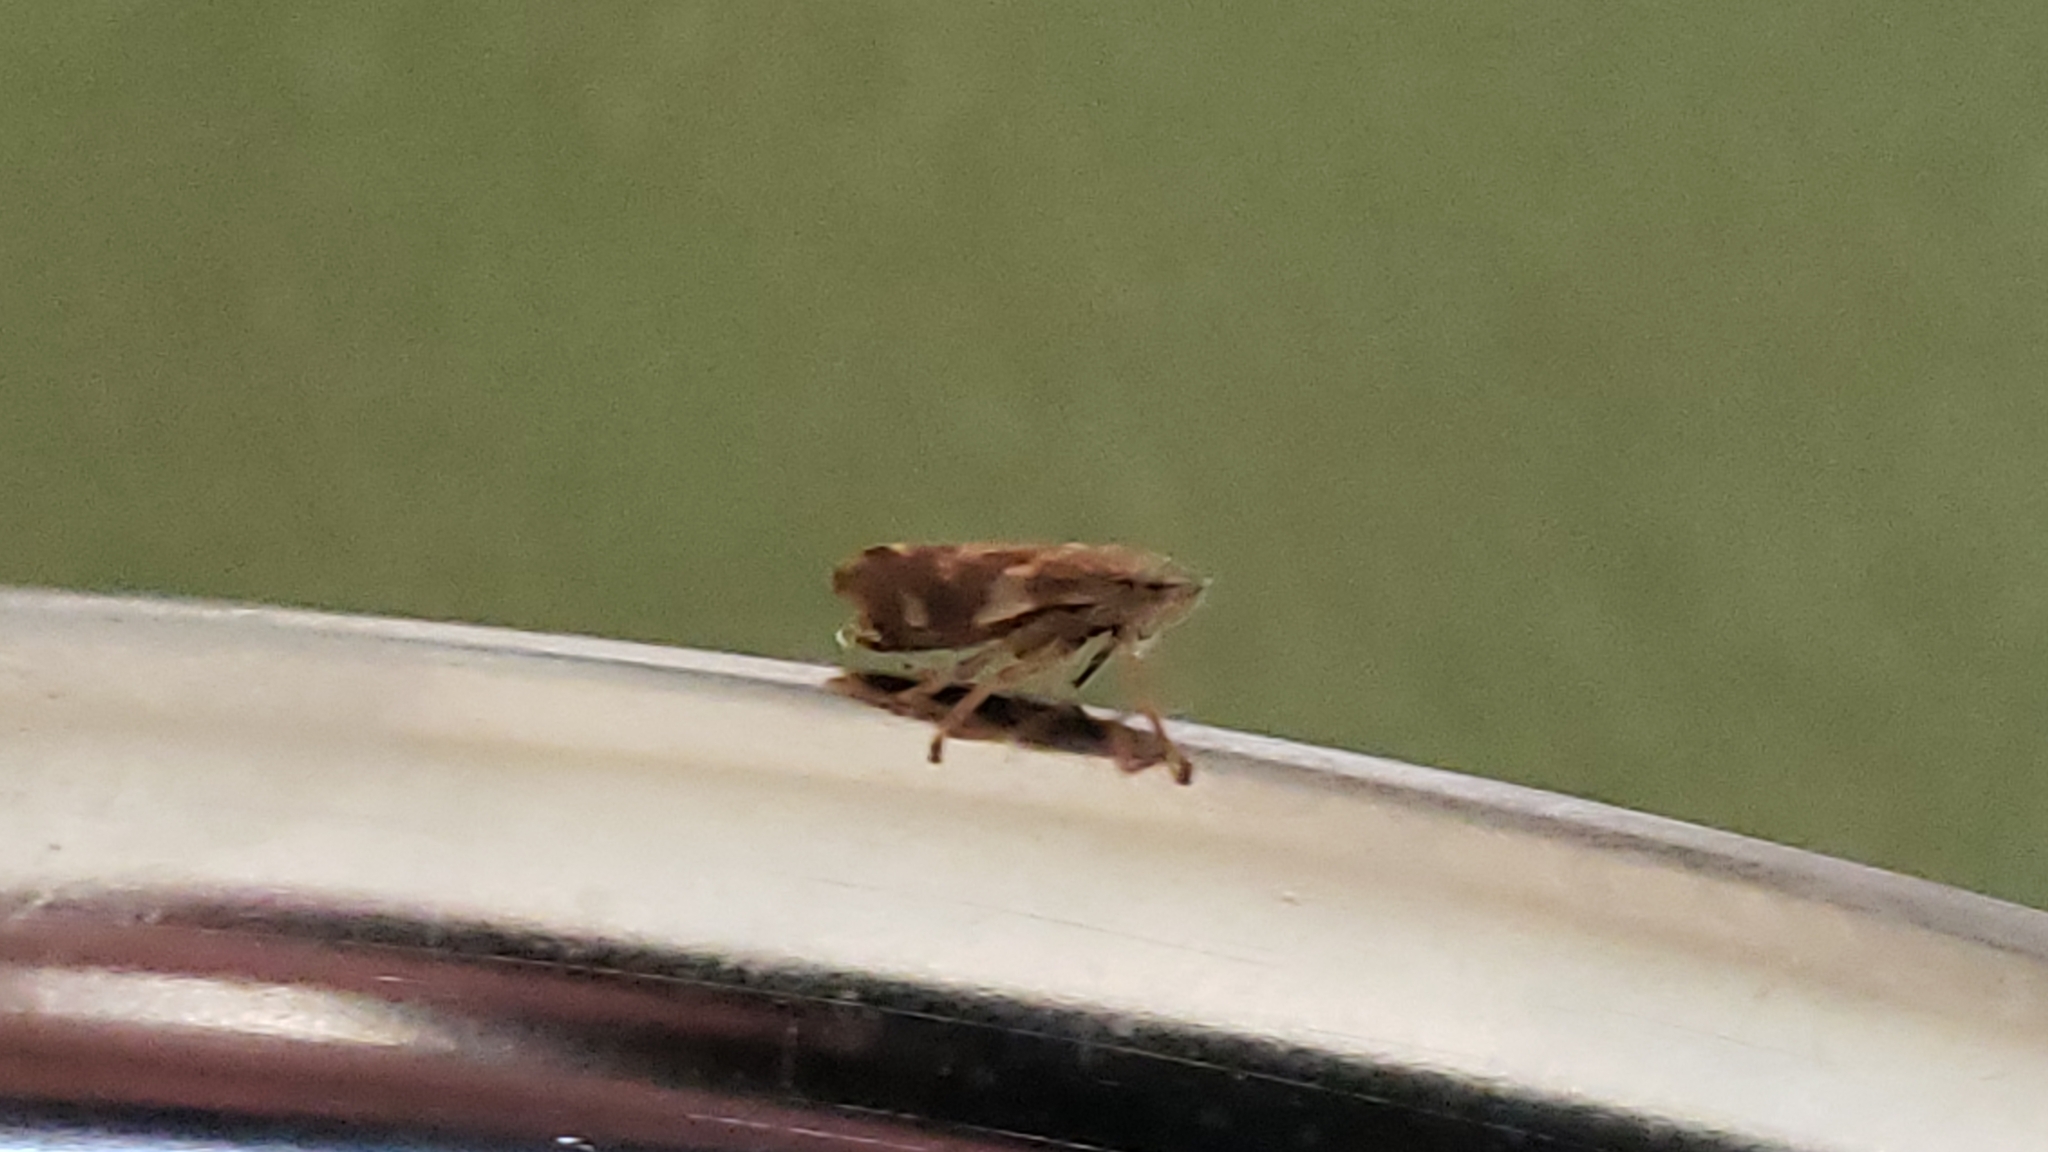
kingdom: Animalia
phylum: Arthropoda
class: Insecta
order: Hemiptera
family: Aphrophoridae
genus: Philaenus
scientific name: Philaenus spumarius
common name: Meadow spittlebug
